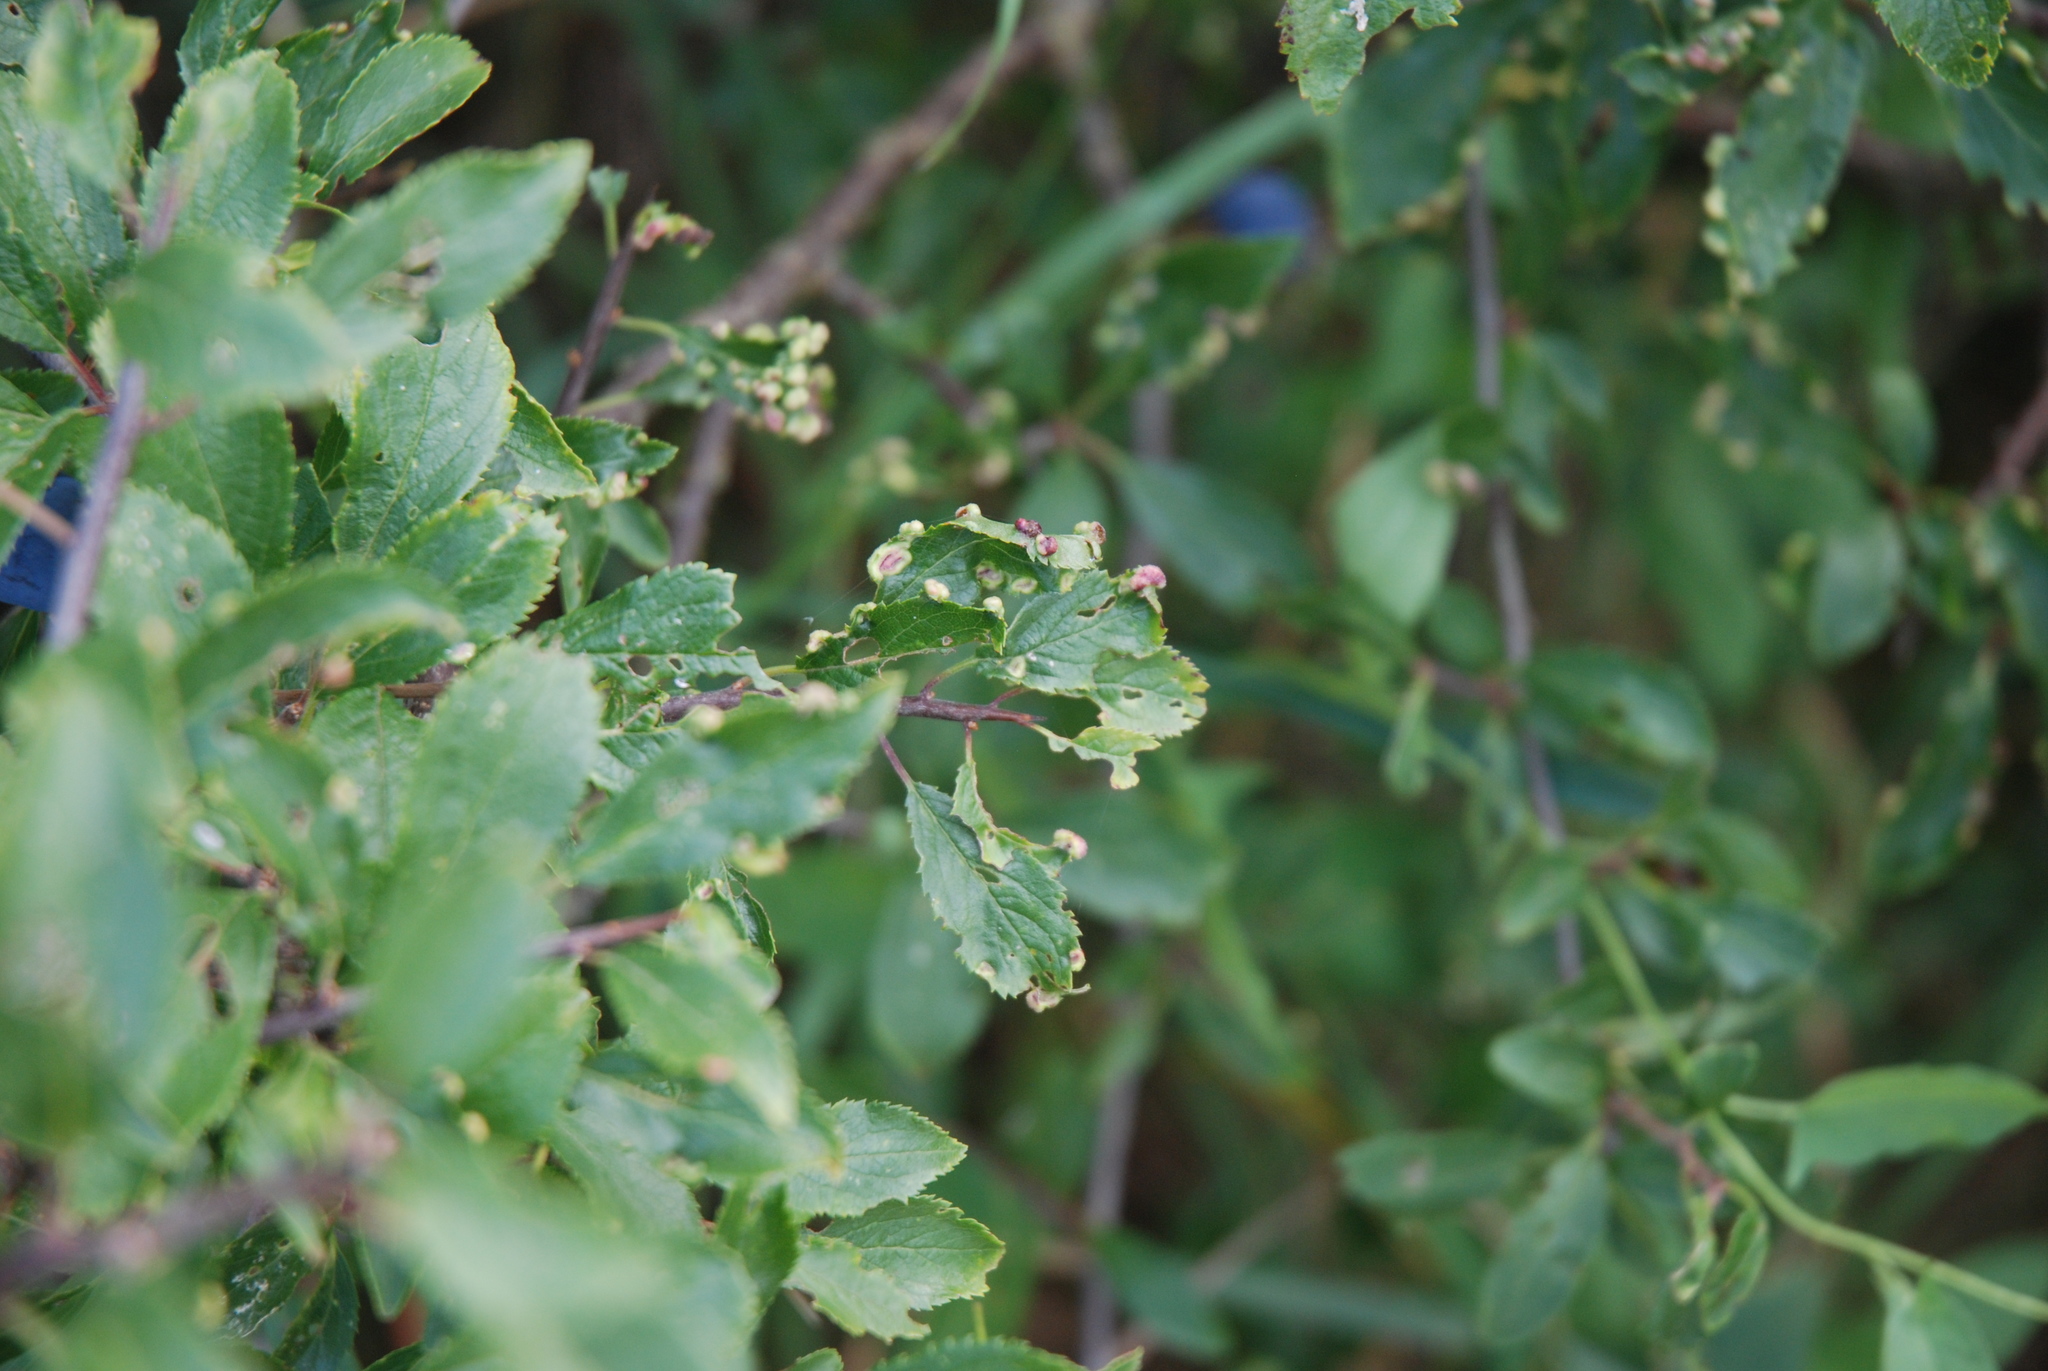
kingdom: Animalia
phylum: Arthropoda
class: Arachnida
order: Trombidiformes
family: Eriophyidae
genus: Eriophyes
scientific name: Eriophyes similis
